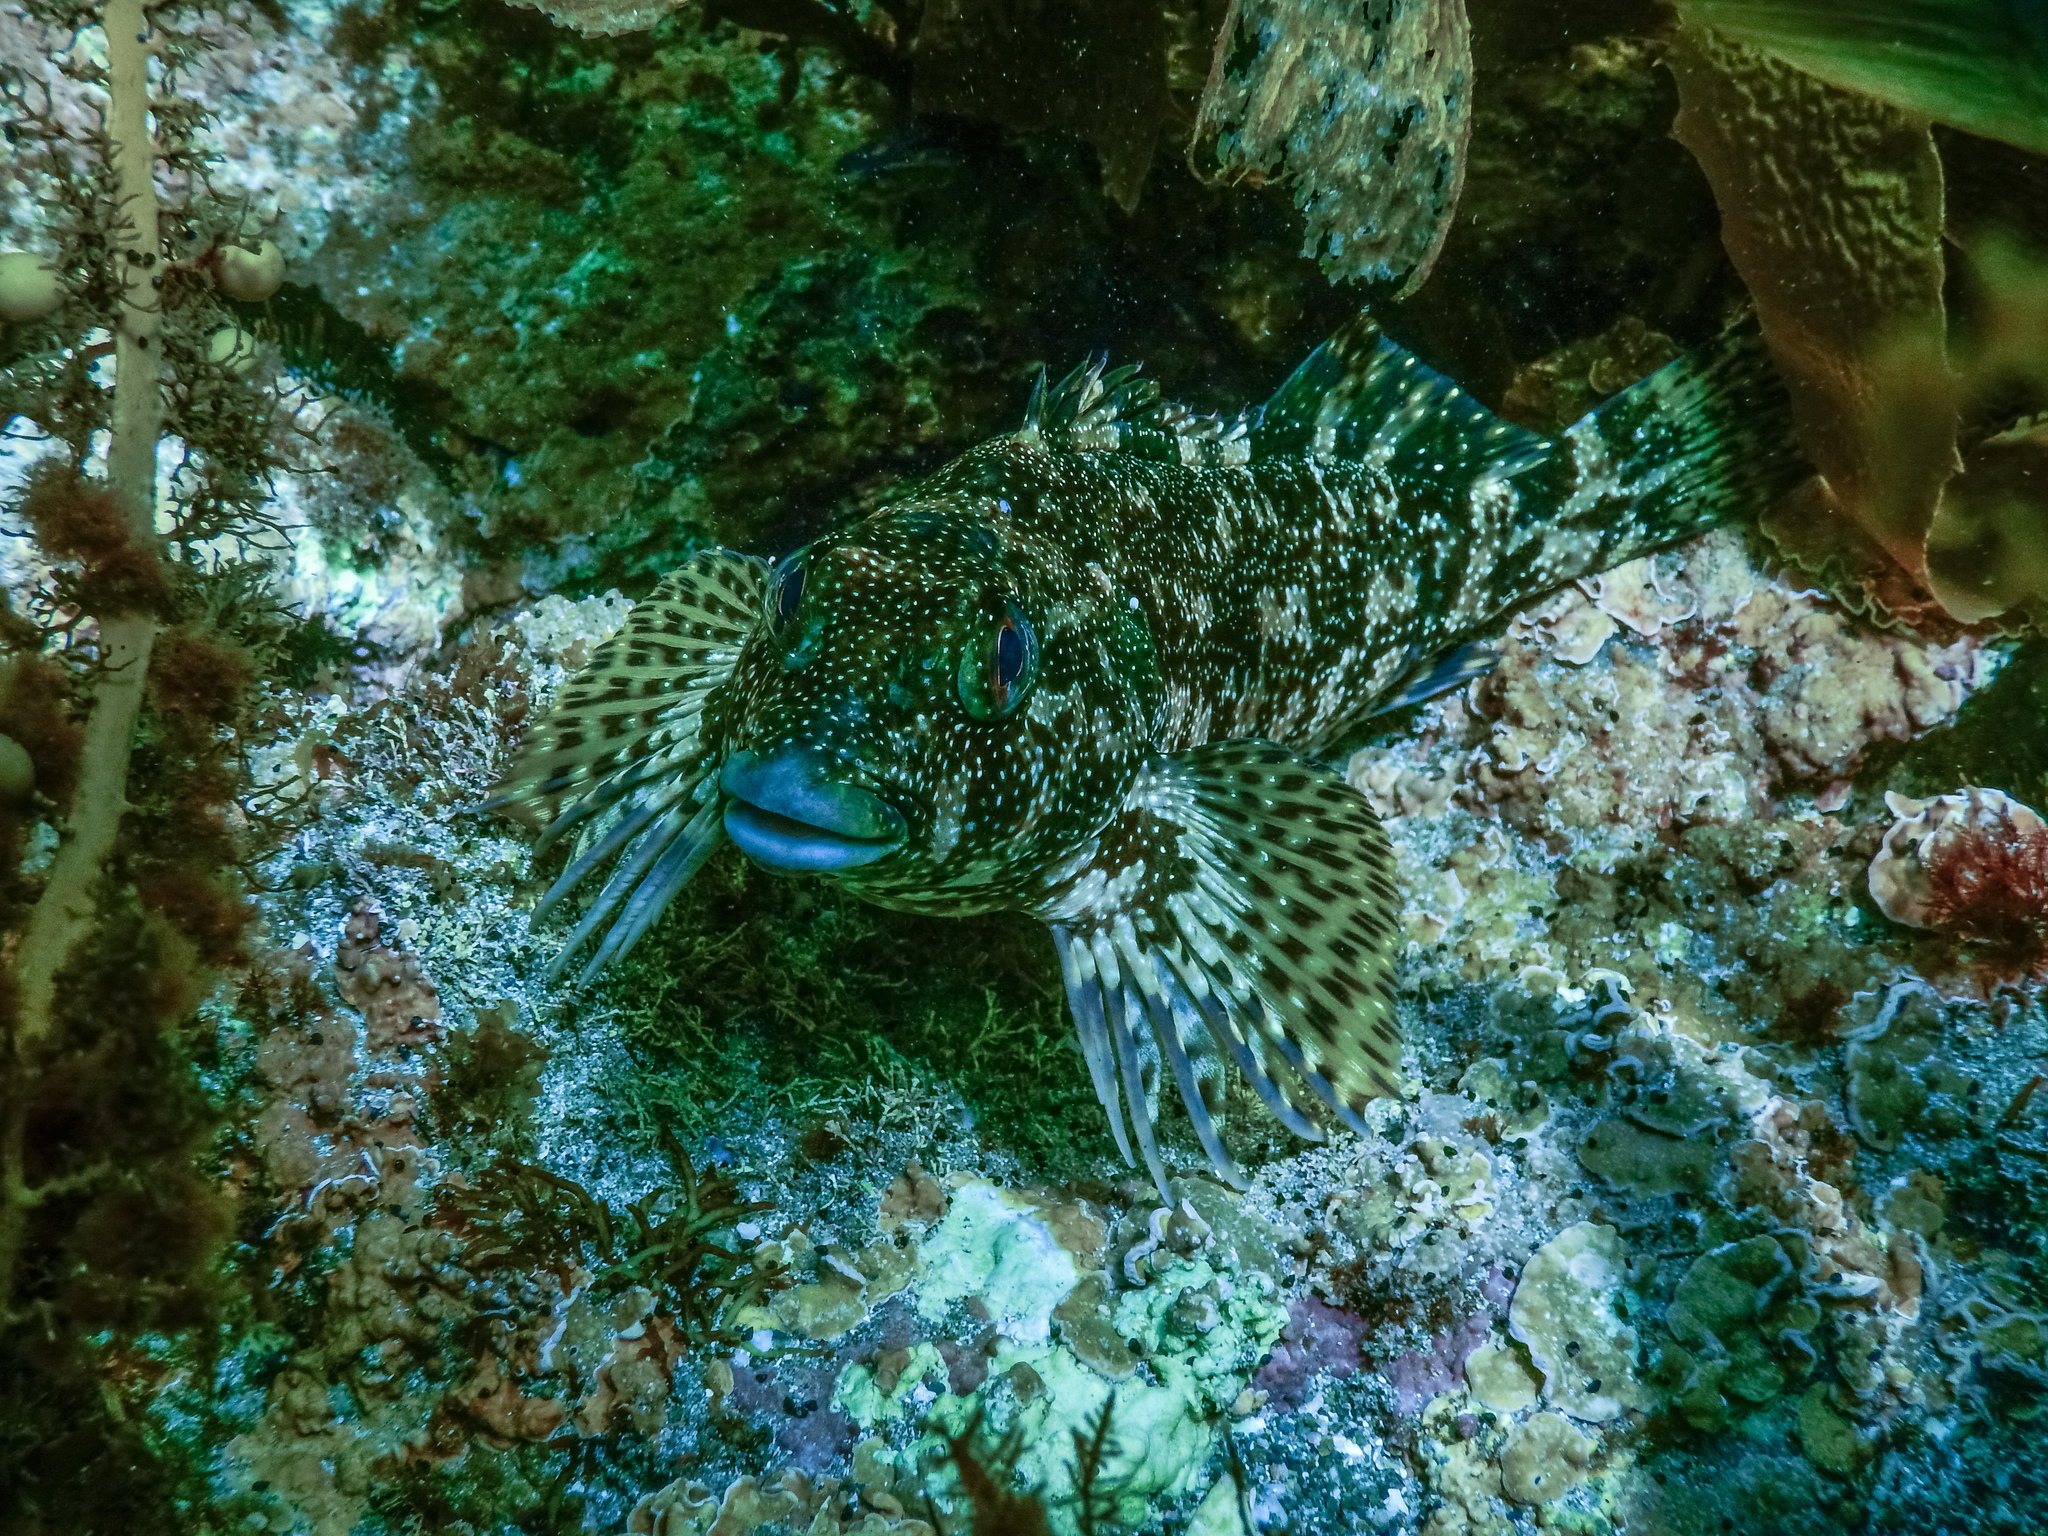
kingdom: Animalia
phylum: Chordata
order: Perciformes
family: Chironemidae
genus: Chironemus
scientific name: Chironemus marmoratus
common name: Kelpfish
